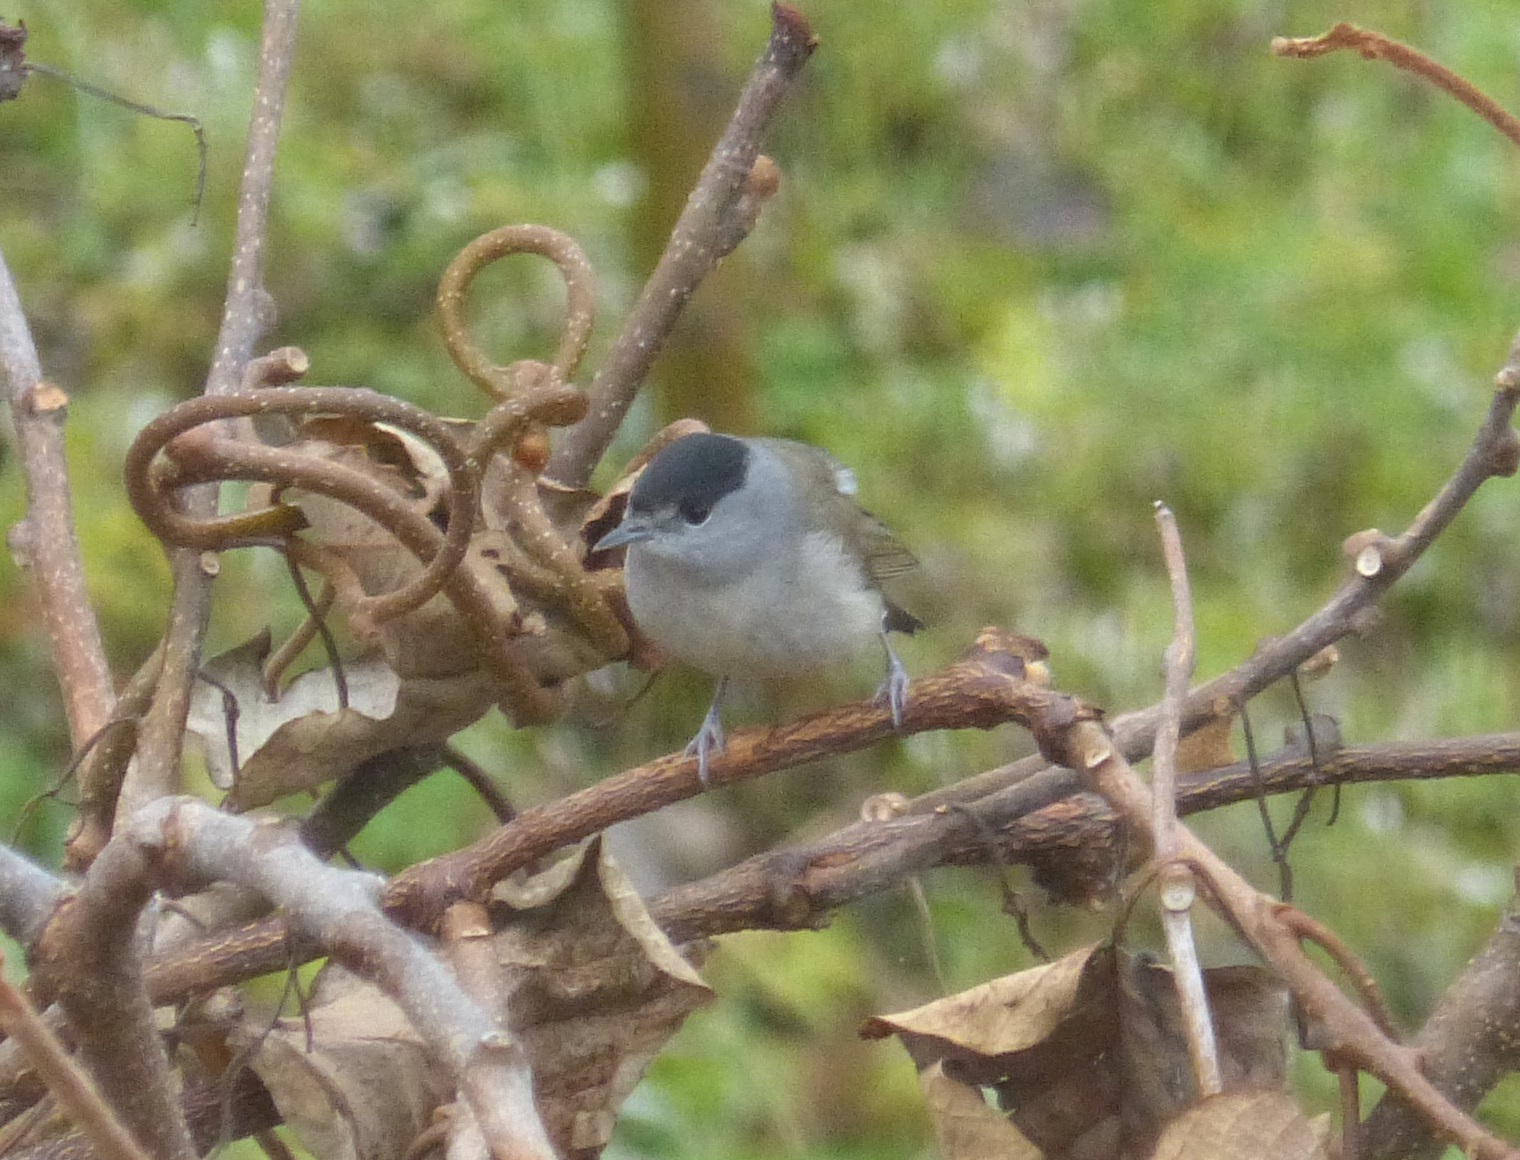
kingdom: Animalia
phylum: Chordata
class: Aves
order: Passeriformes
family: Sylviidae
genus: Sylvia
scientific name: Sylvia atricapilla
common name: Eurasian blackcap
